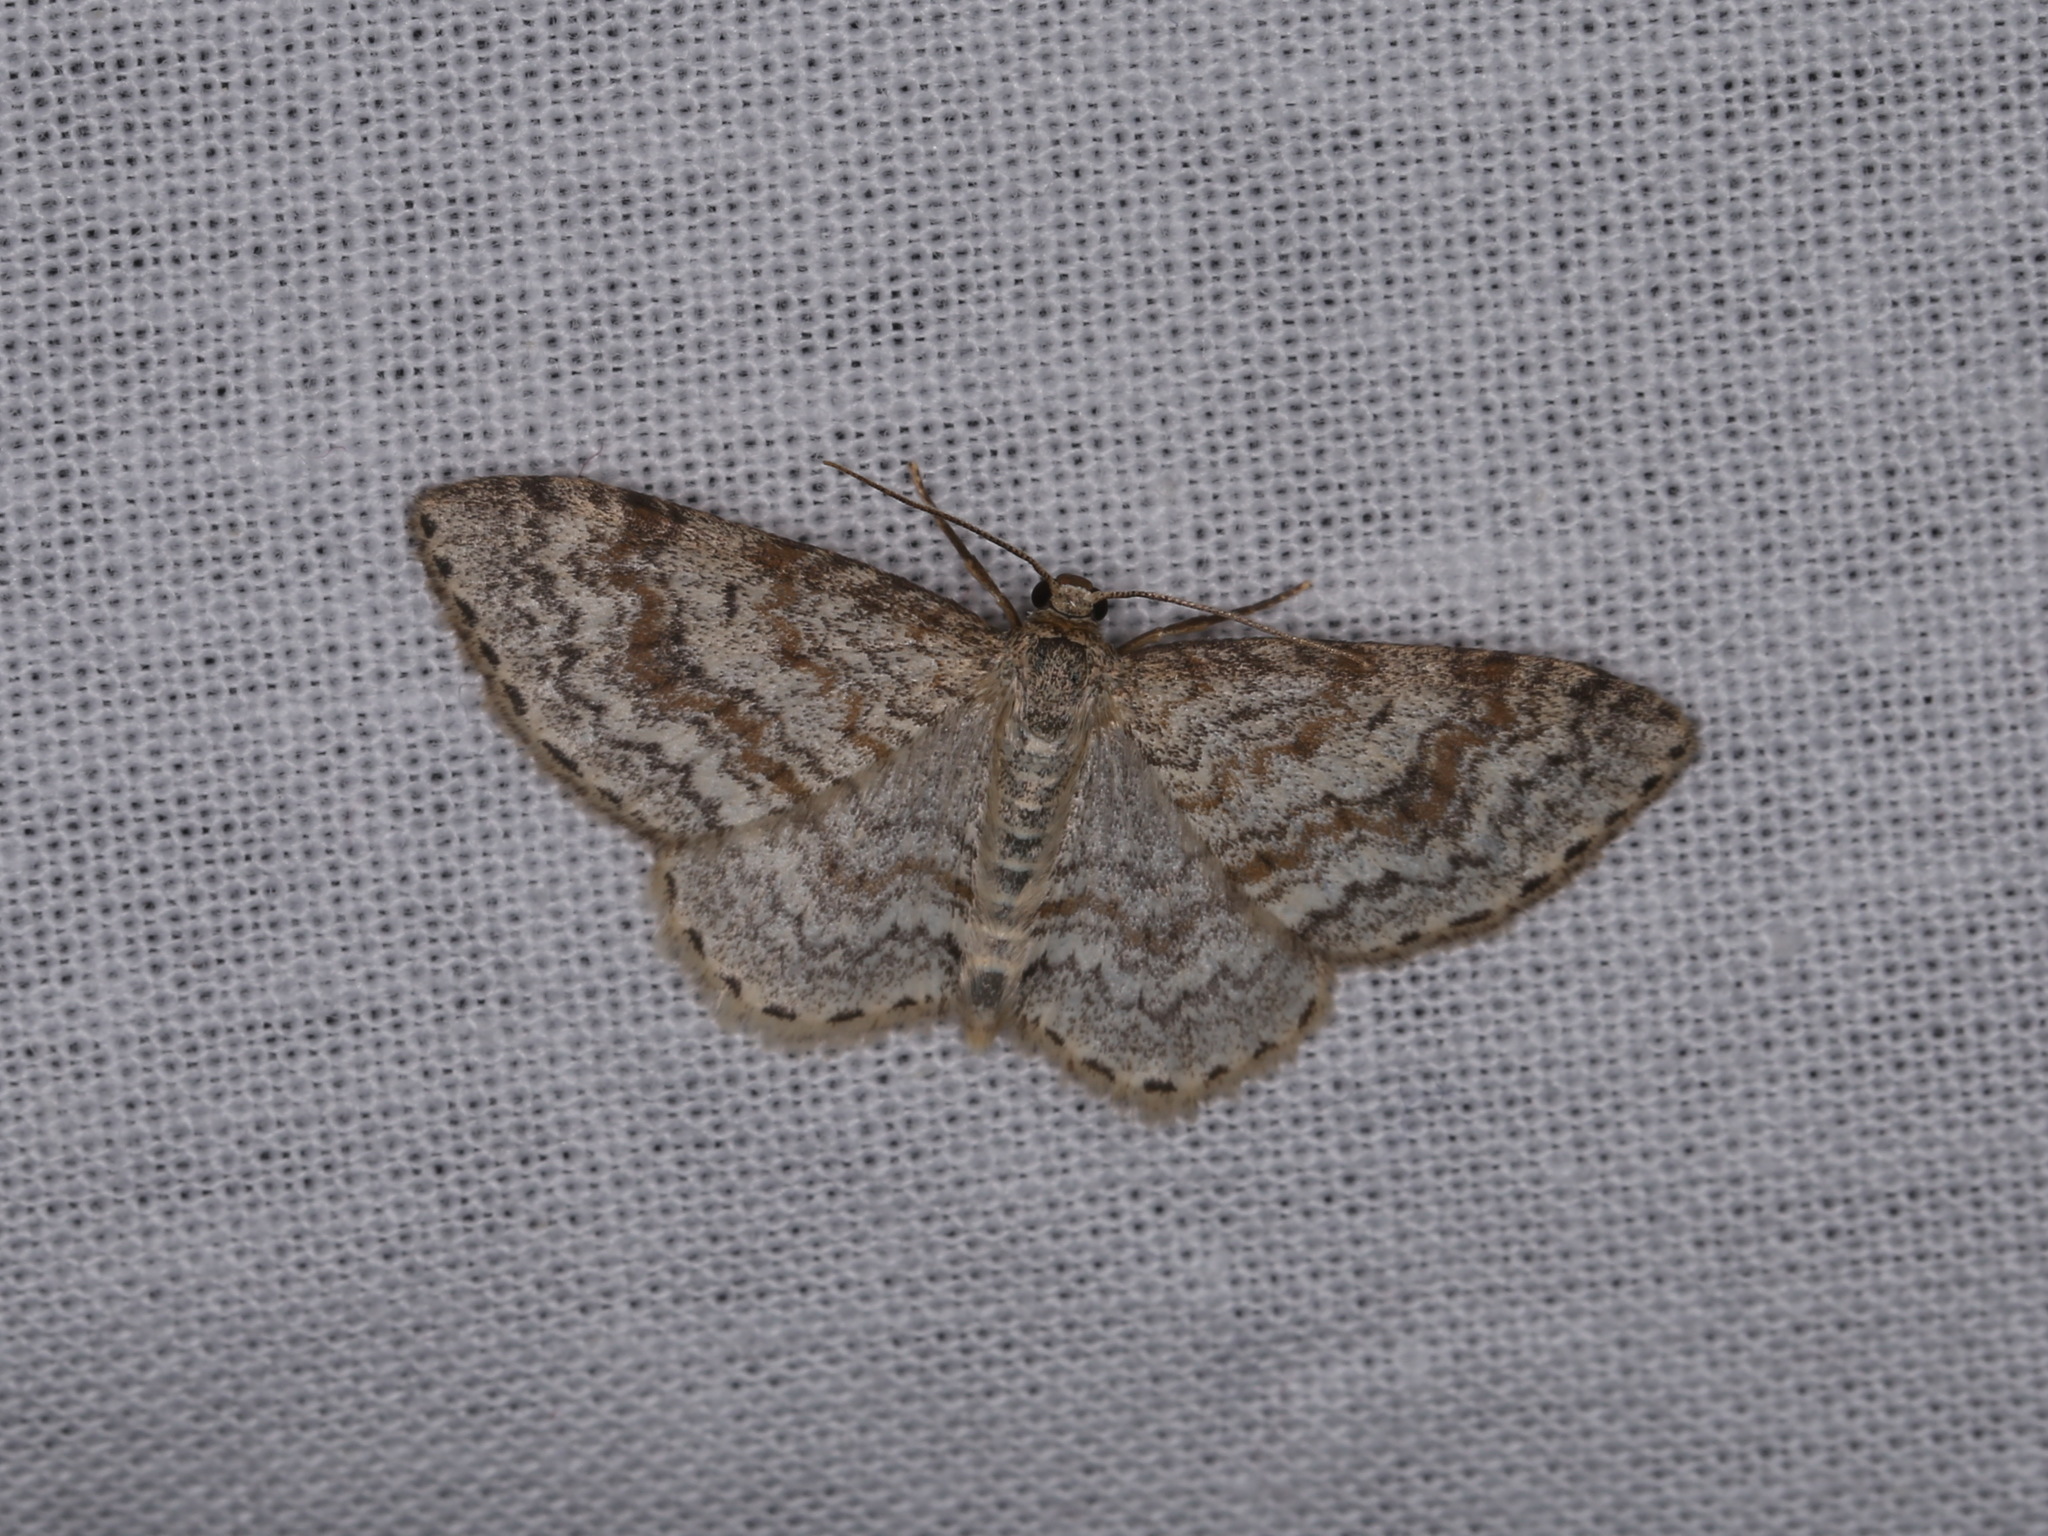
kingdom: Animalia
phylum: Arthropoda
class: Insecta
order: Lepidoptera
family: Geometridae
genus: Hydrelia
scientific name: Hydrelia sylvata
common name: Waved carpet
